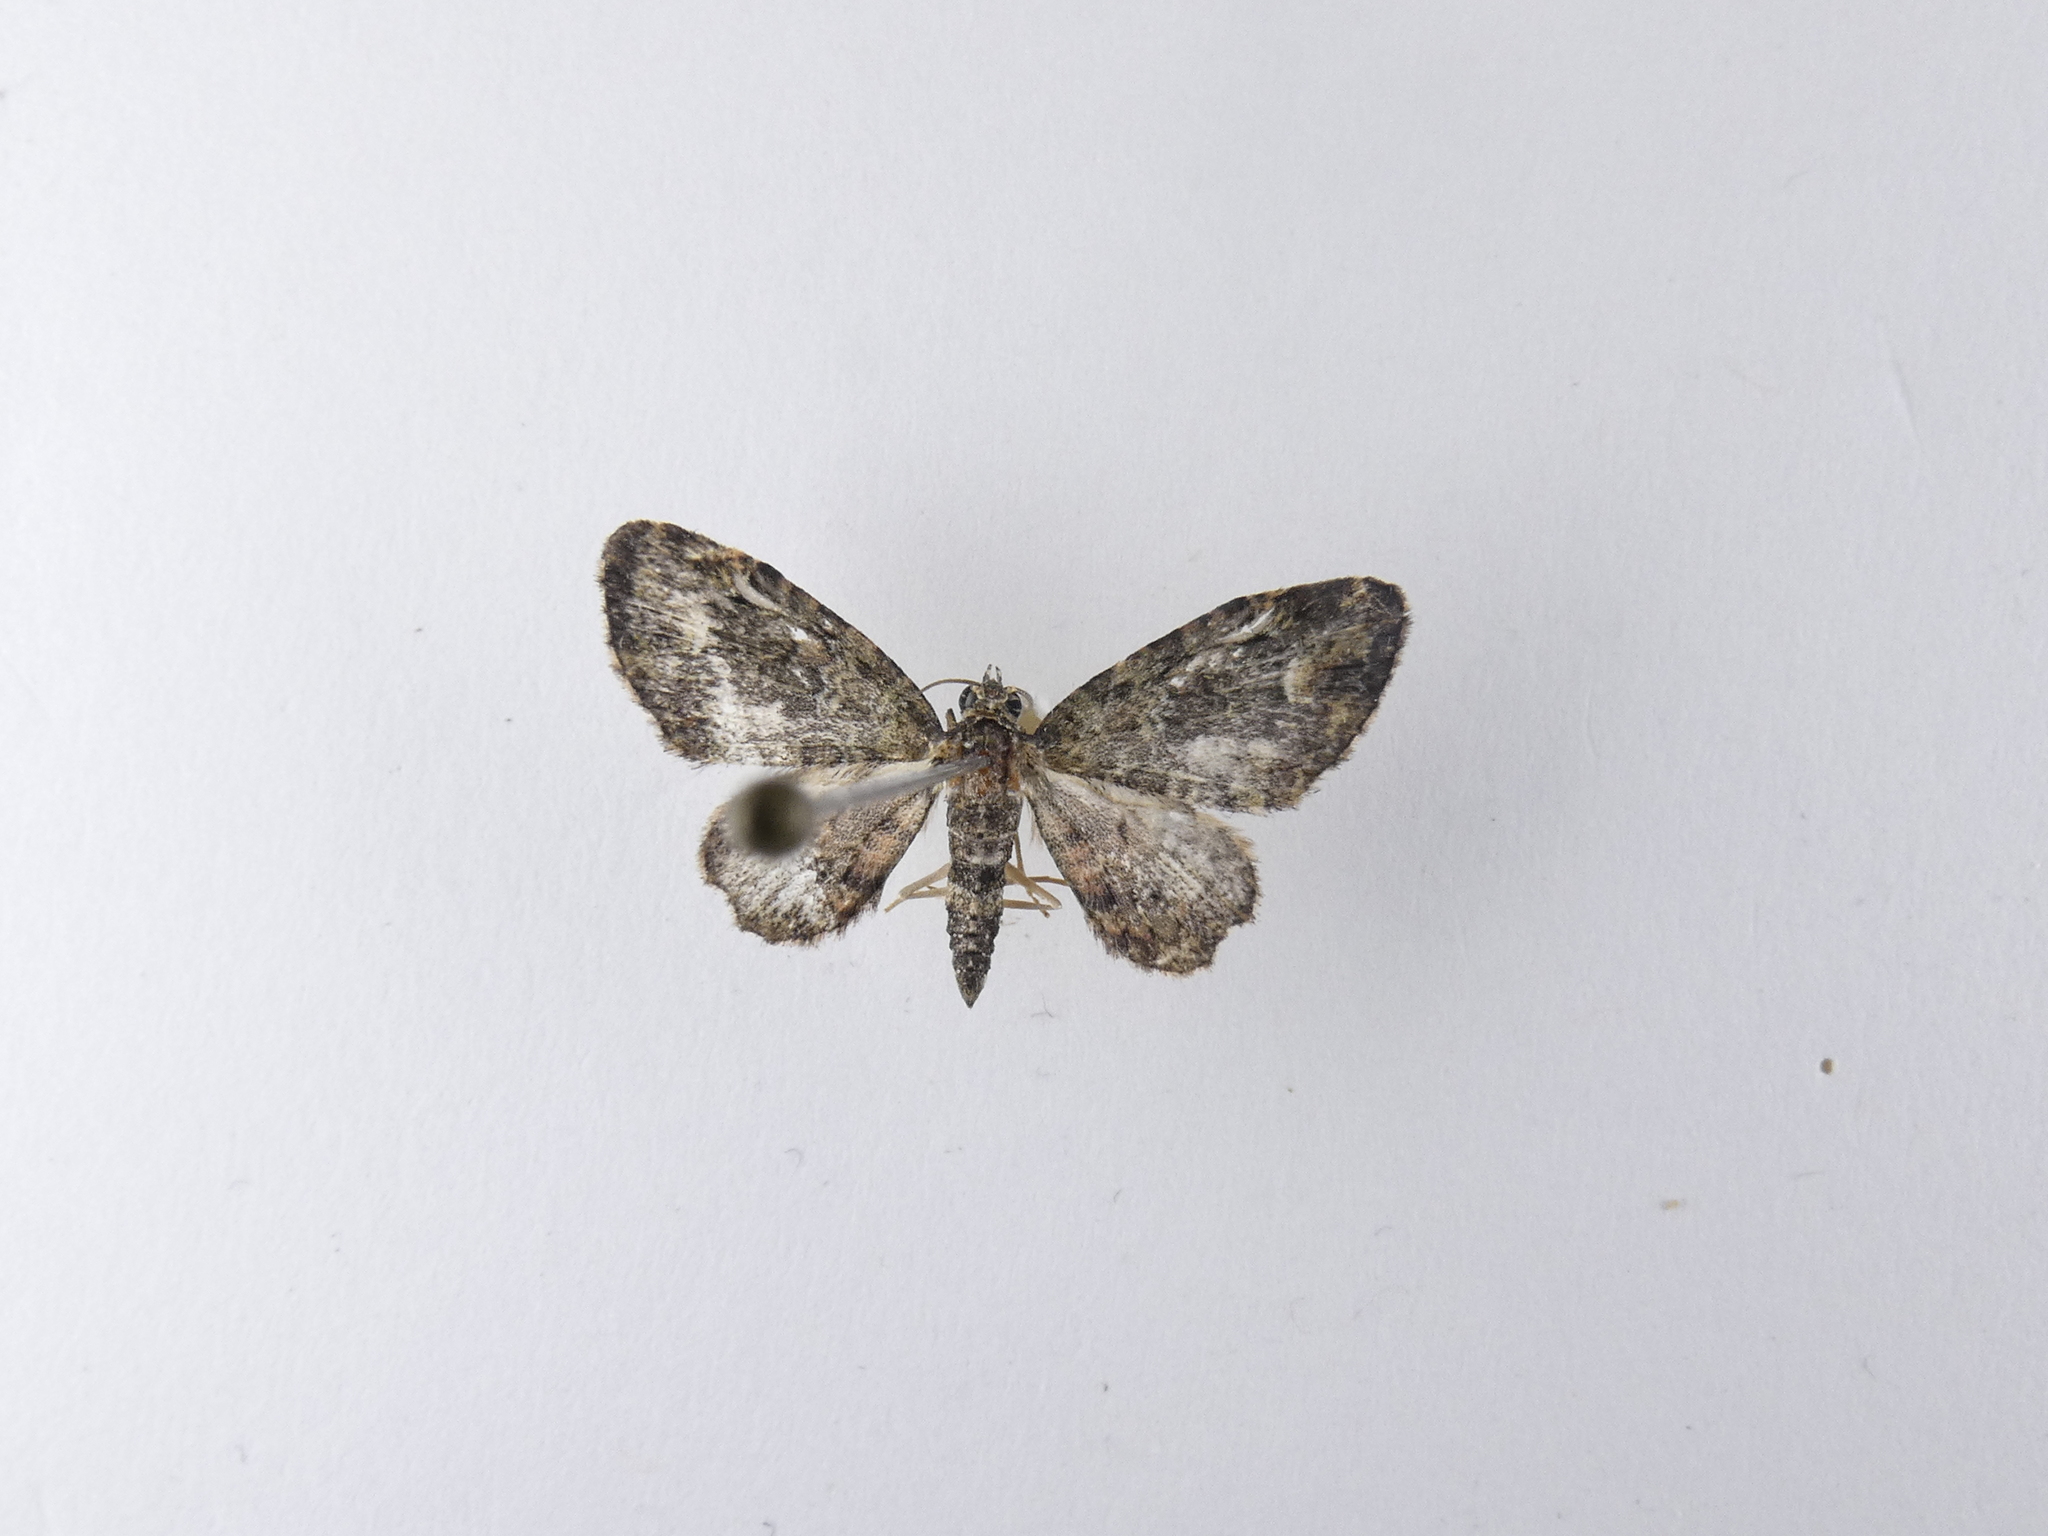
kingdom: Animalia
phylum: Arthropoda
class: Insecta
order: Lepidoptera
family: Geometridae
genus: Pasiphilodes
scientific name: Pasiphilodes testulata
